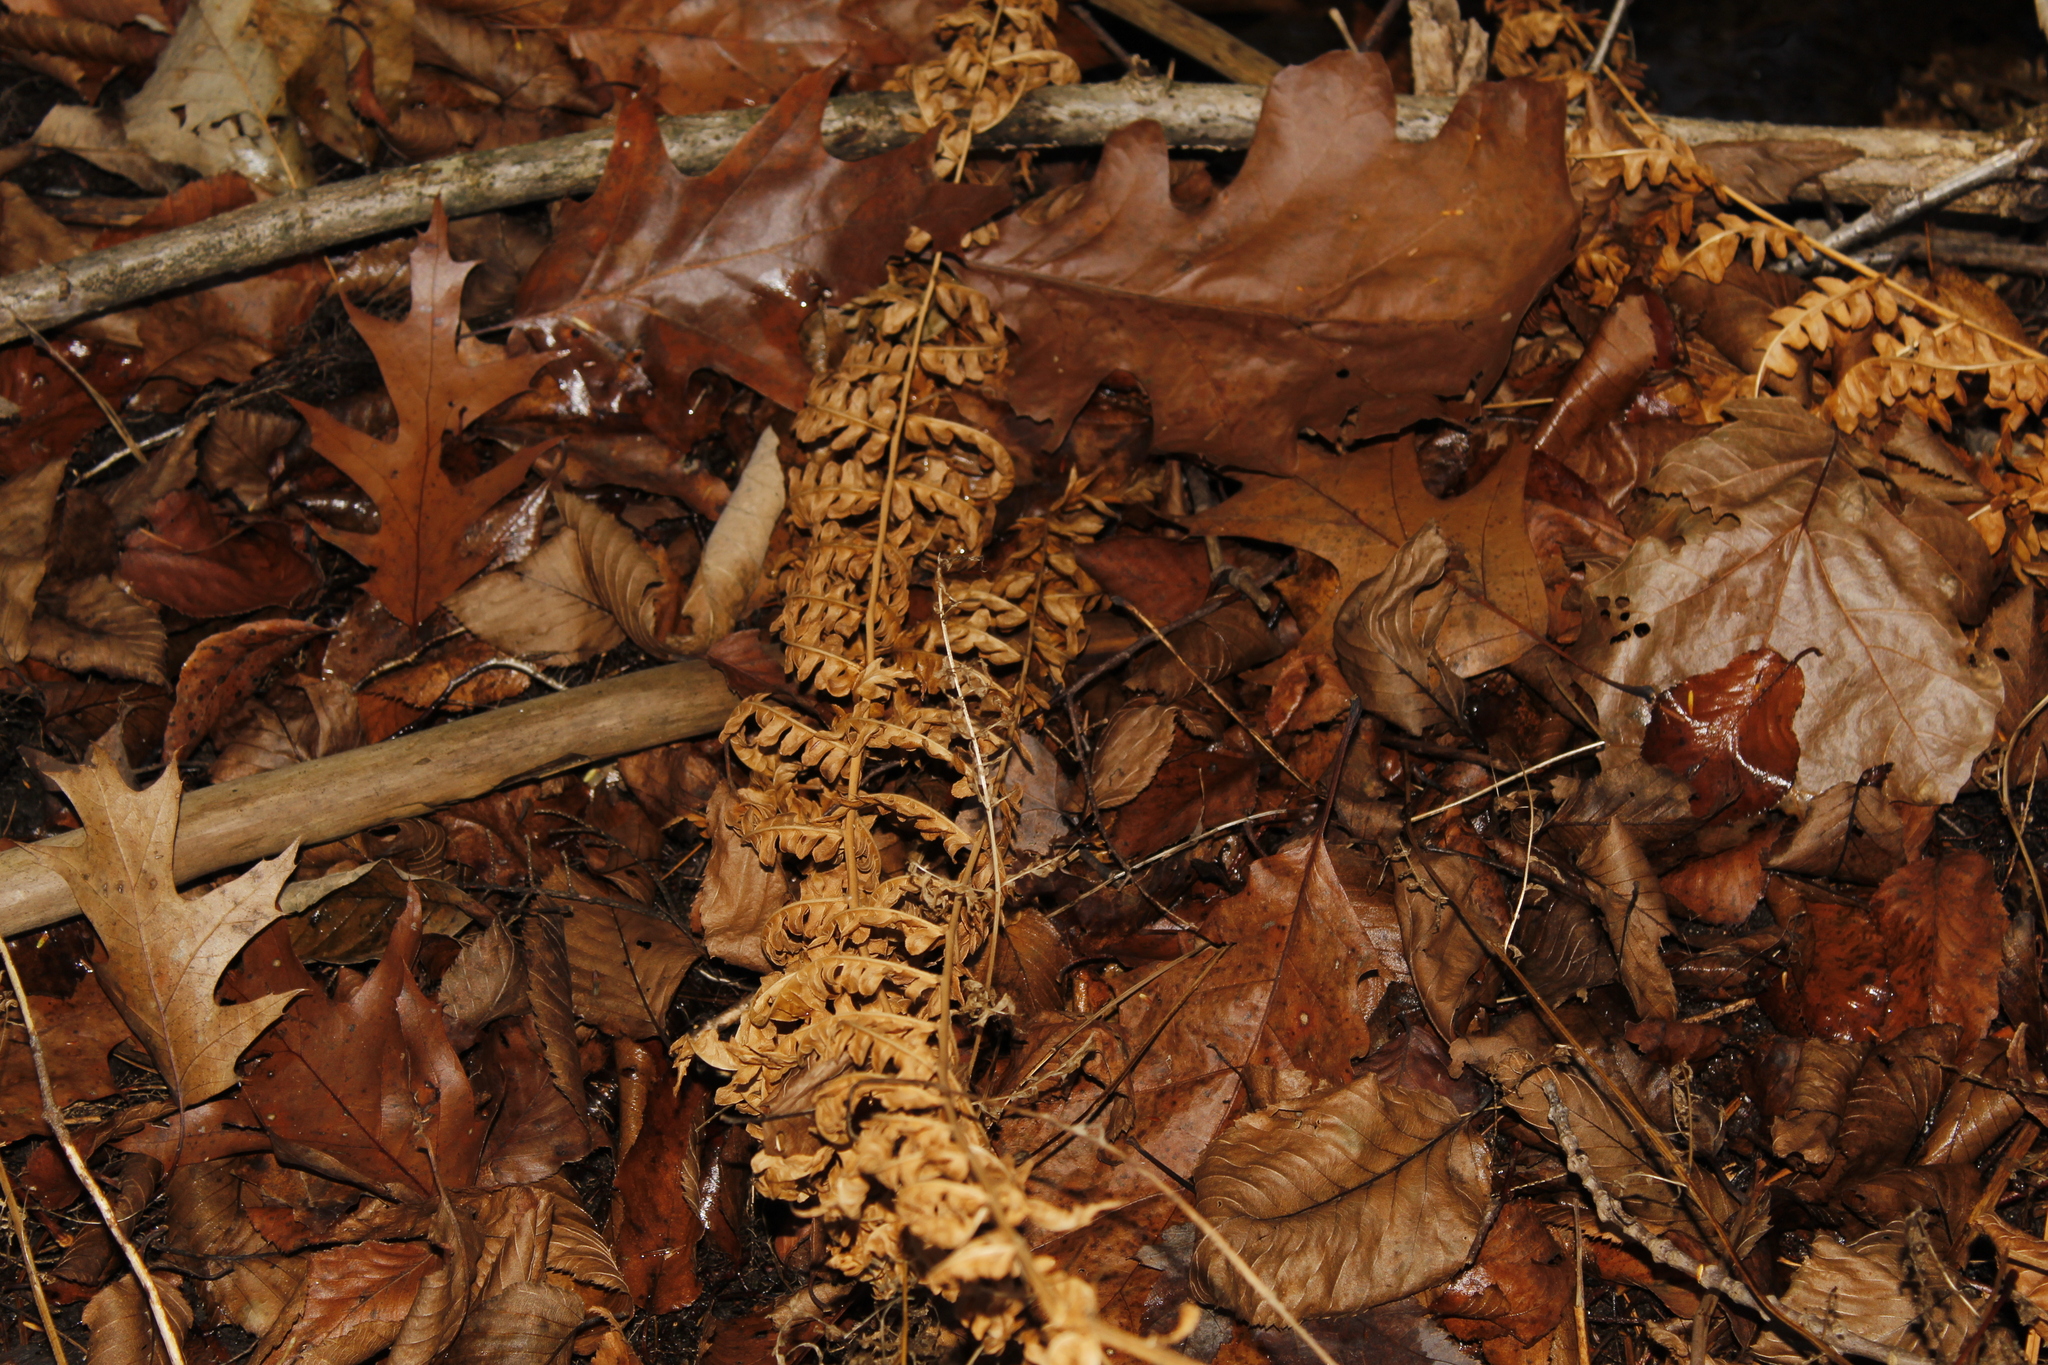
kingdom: Plantae
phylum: Tracheophyta
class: Polypodiopsida
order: Polypodiales
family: Dennstaedtiaceae
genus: Pteridium
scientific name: Pteridium aquilinum
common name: Bracken
